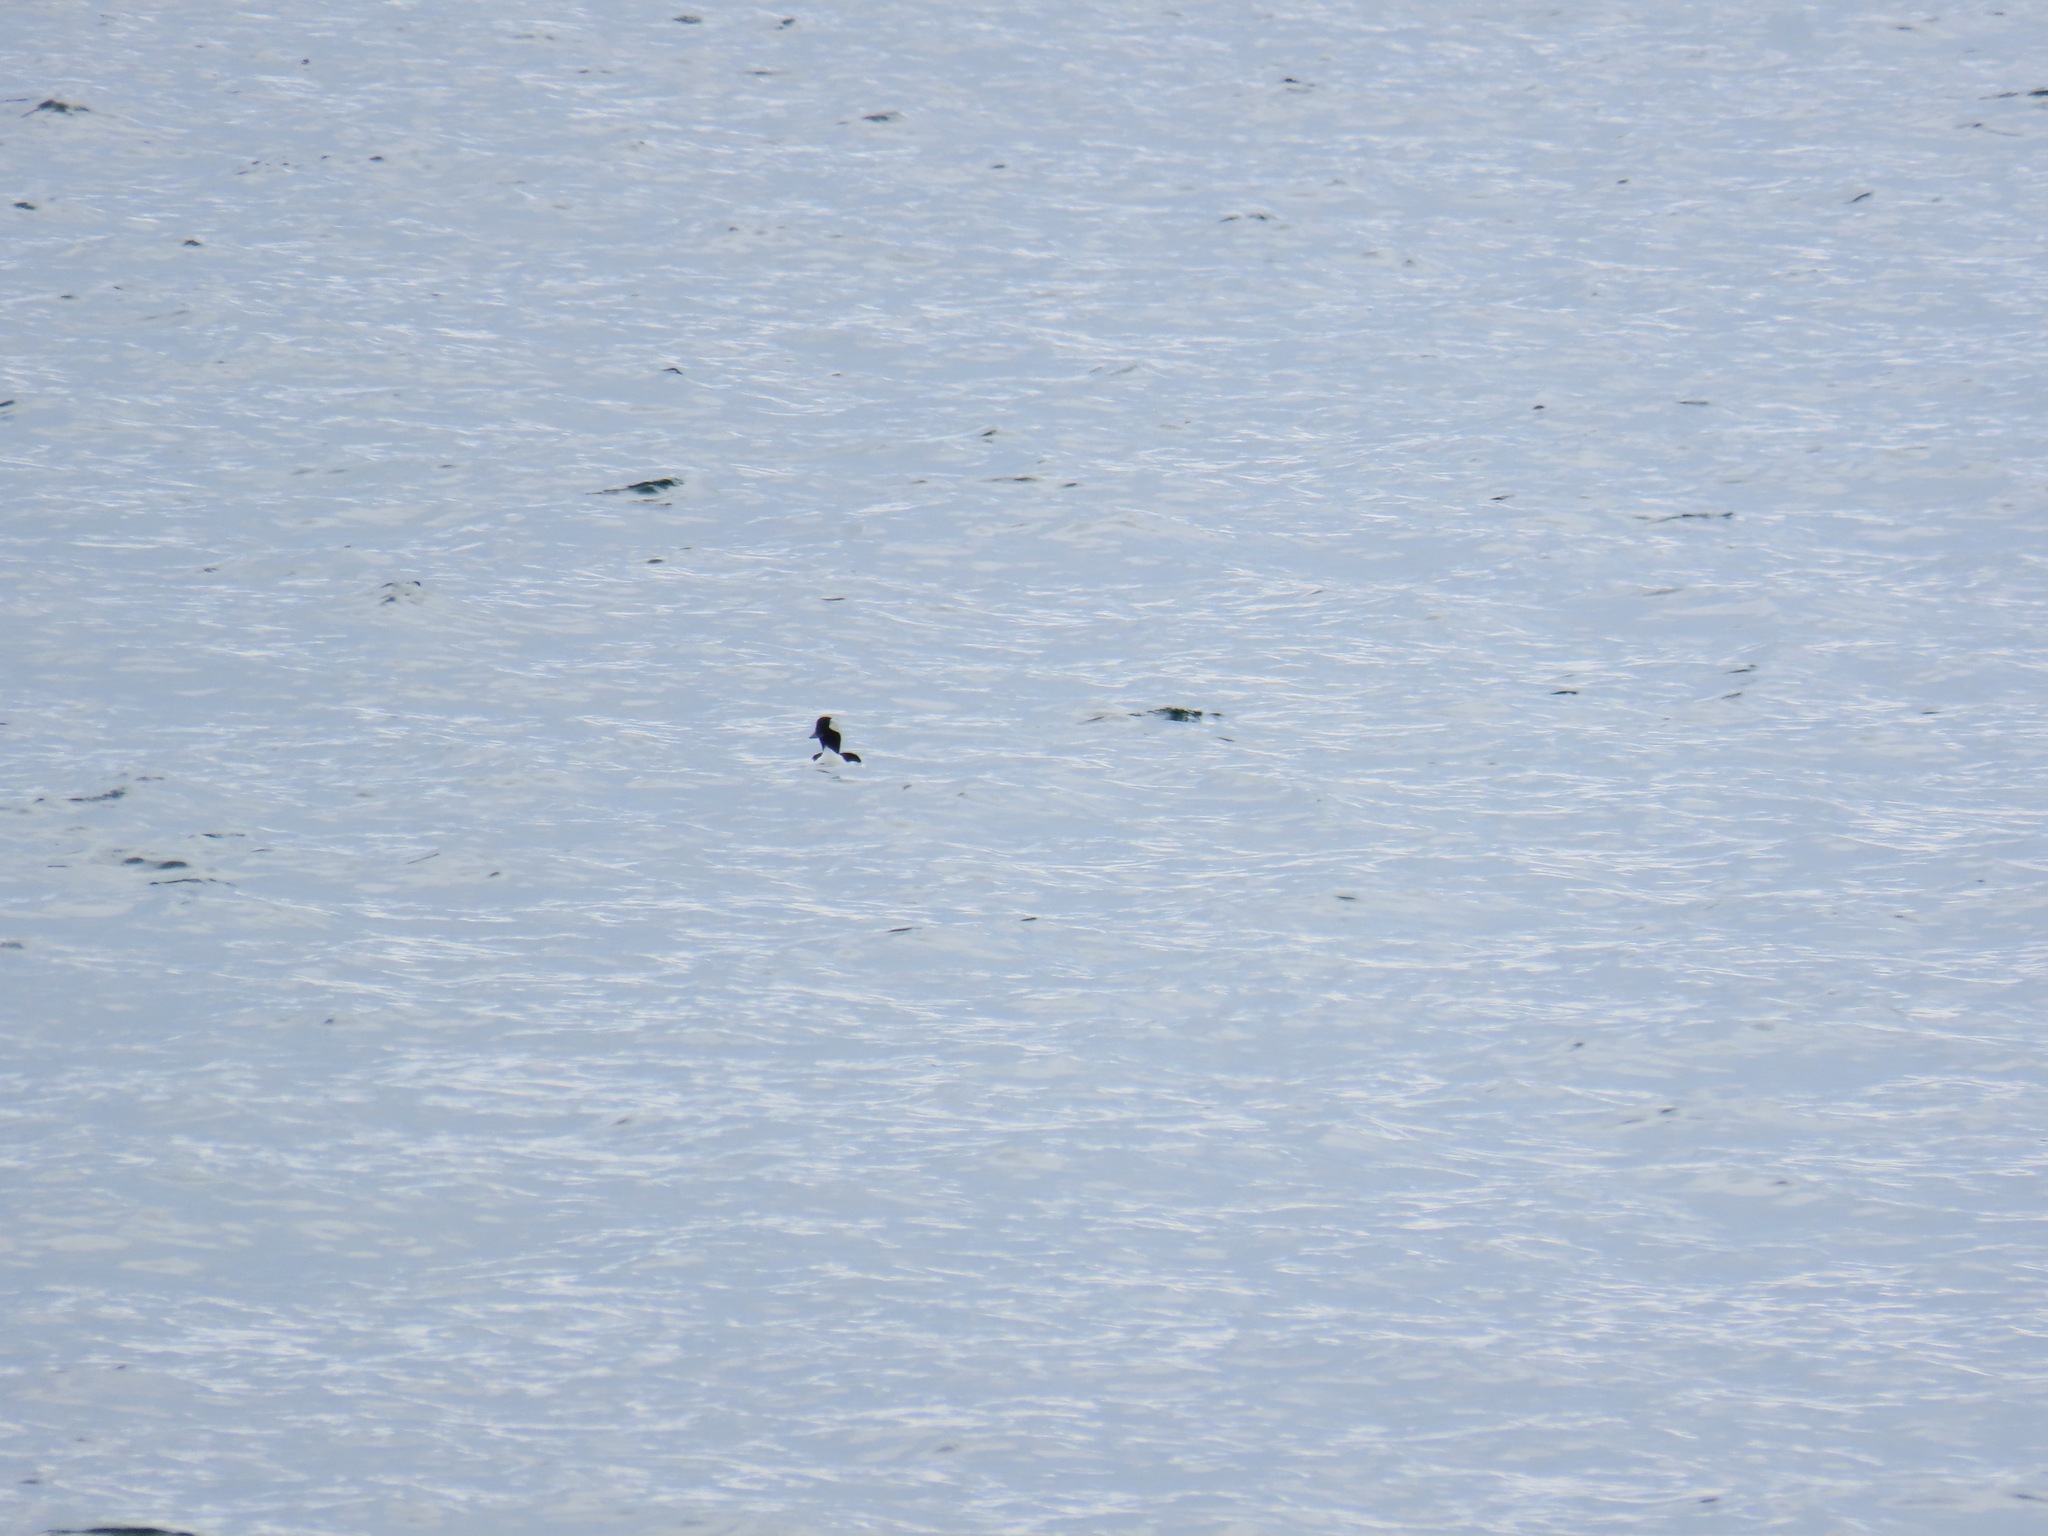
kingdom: Animalia
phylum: Chordata
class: Aves
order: Anseriformes
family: Anatidae
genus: Bucephala
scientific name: Bucephala albeola
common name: Bufflehead
